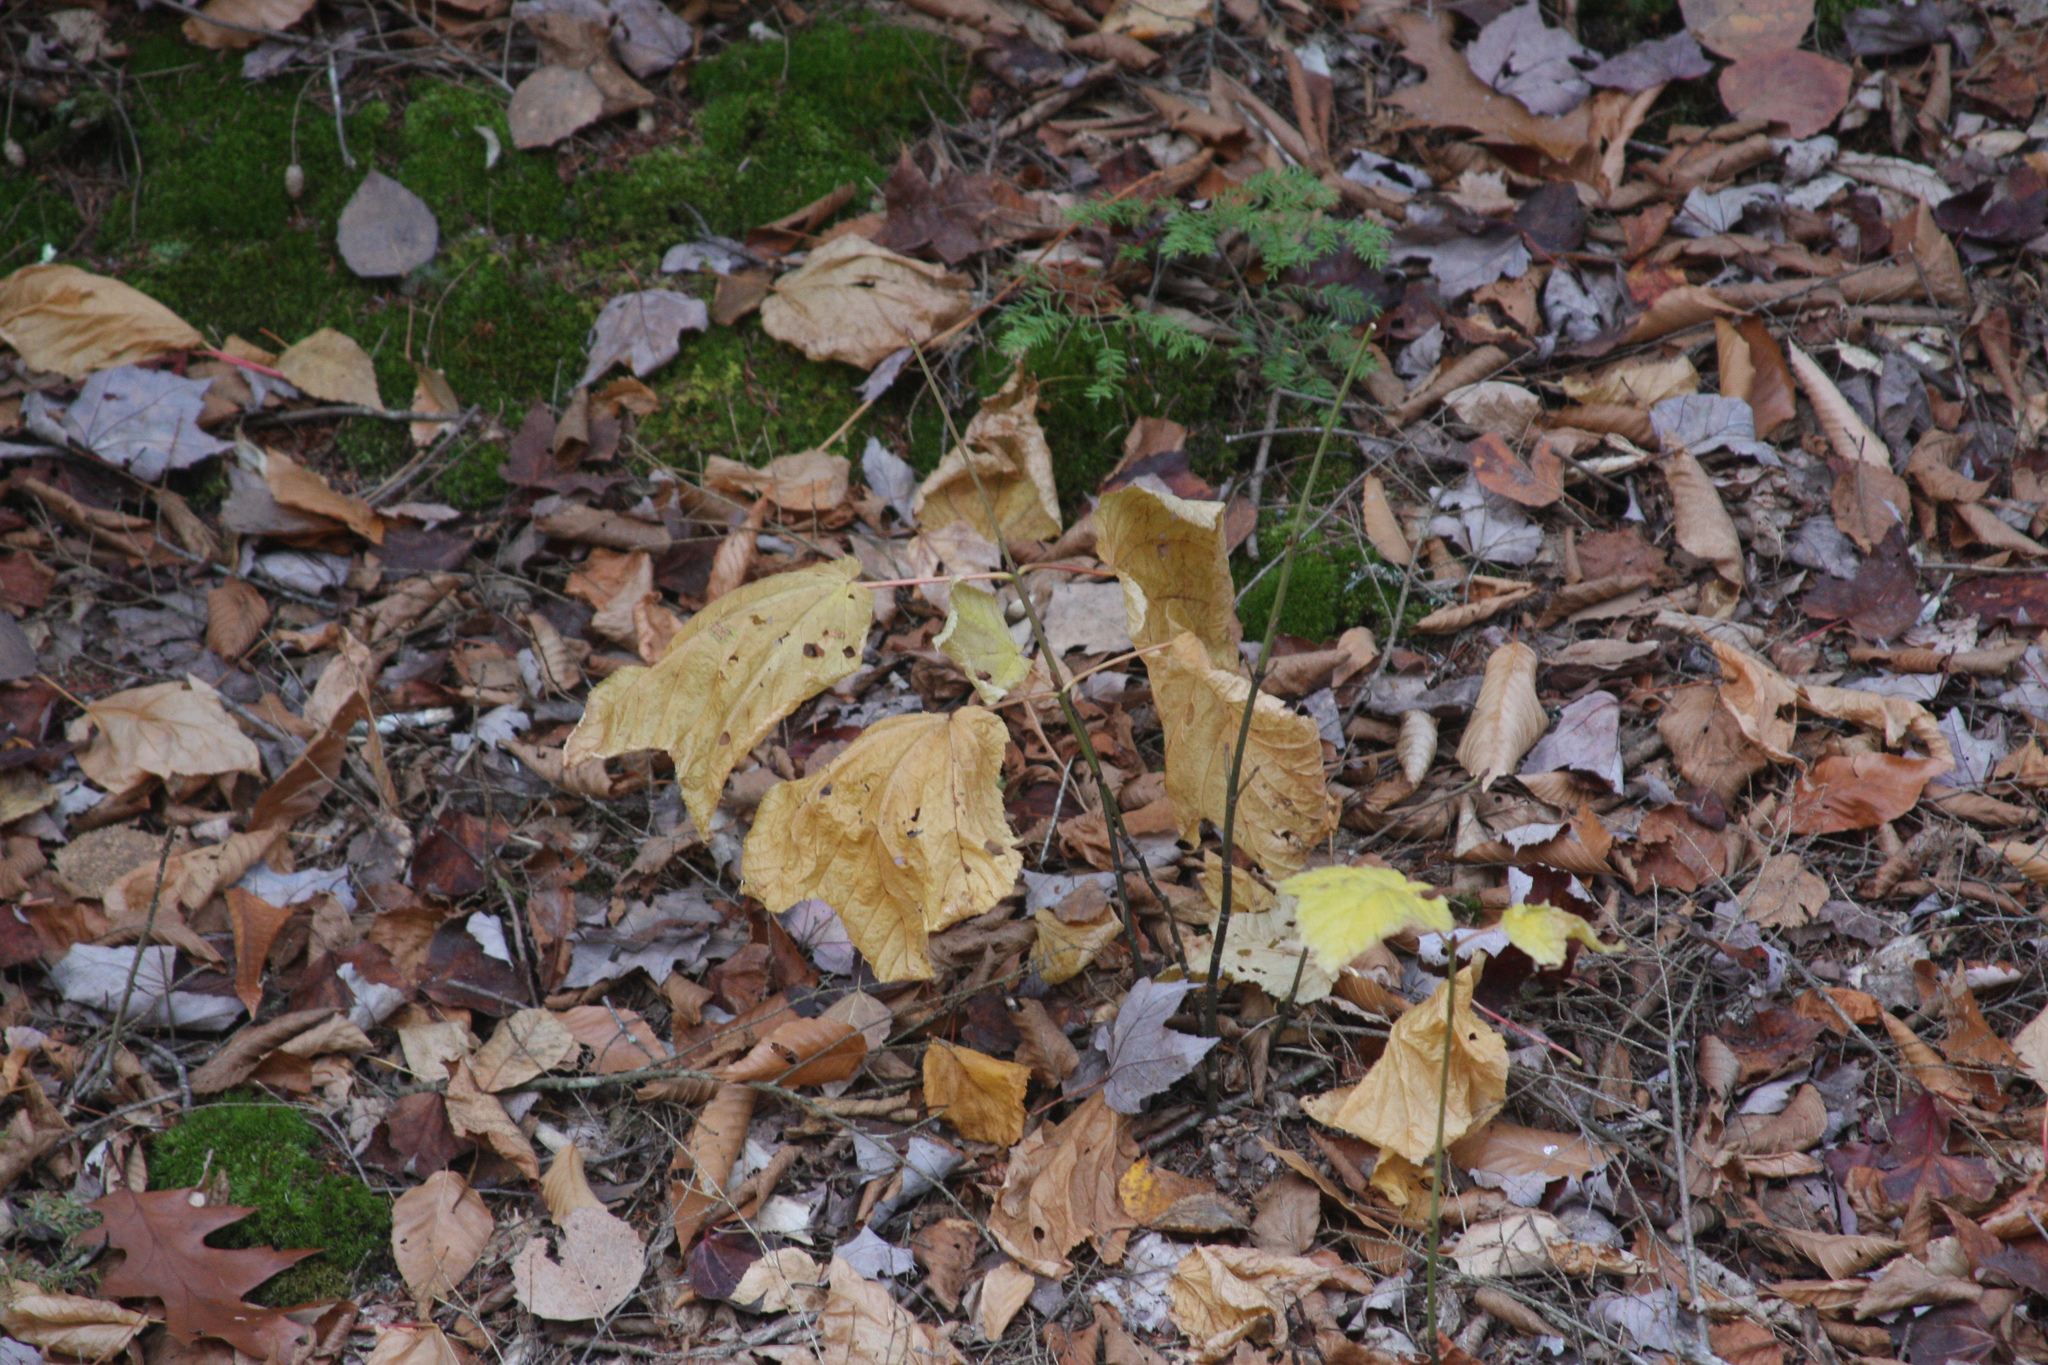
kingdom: Plantae
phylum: Tracheophyta
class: Magnoliopsida
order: Sapindales
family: Sapindaceae
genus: Acer
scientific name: Acer pensylvanicum
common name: Moosewood
